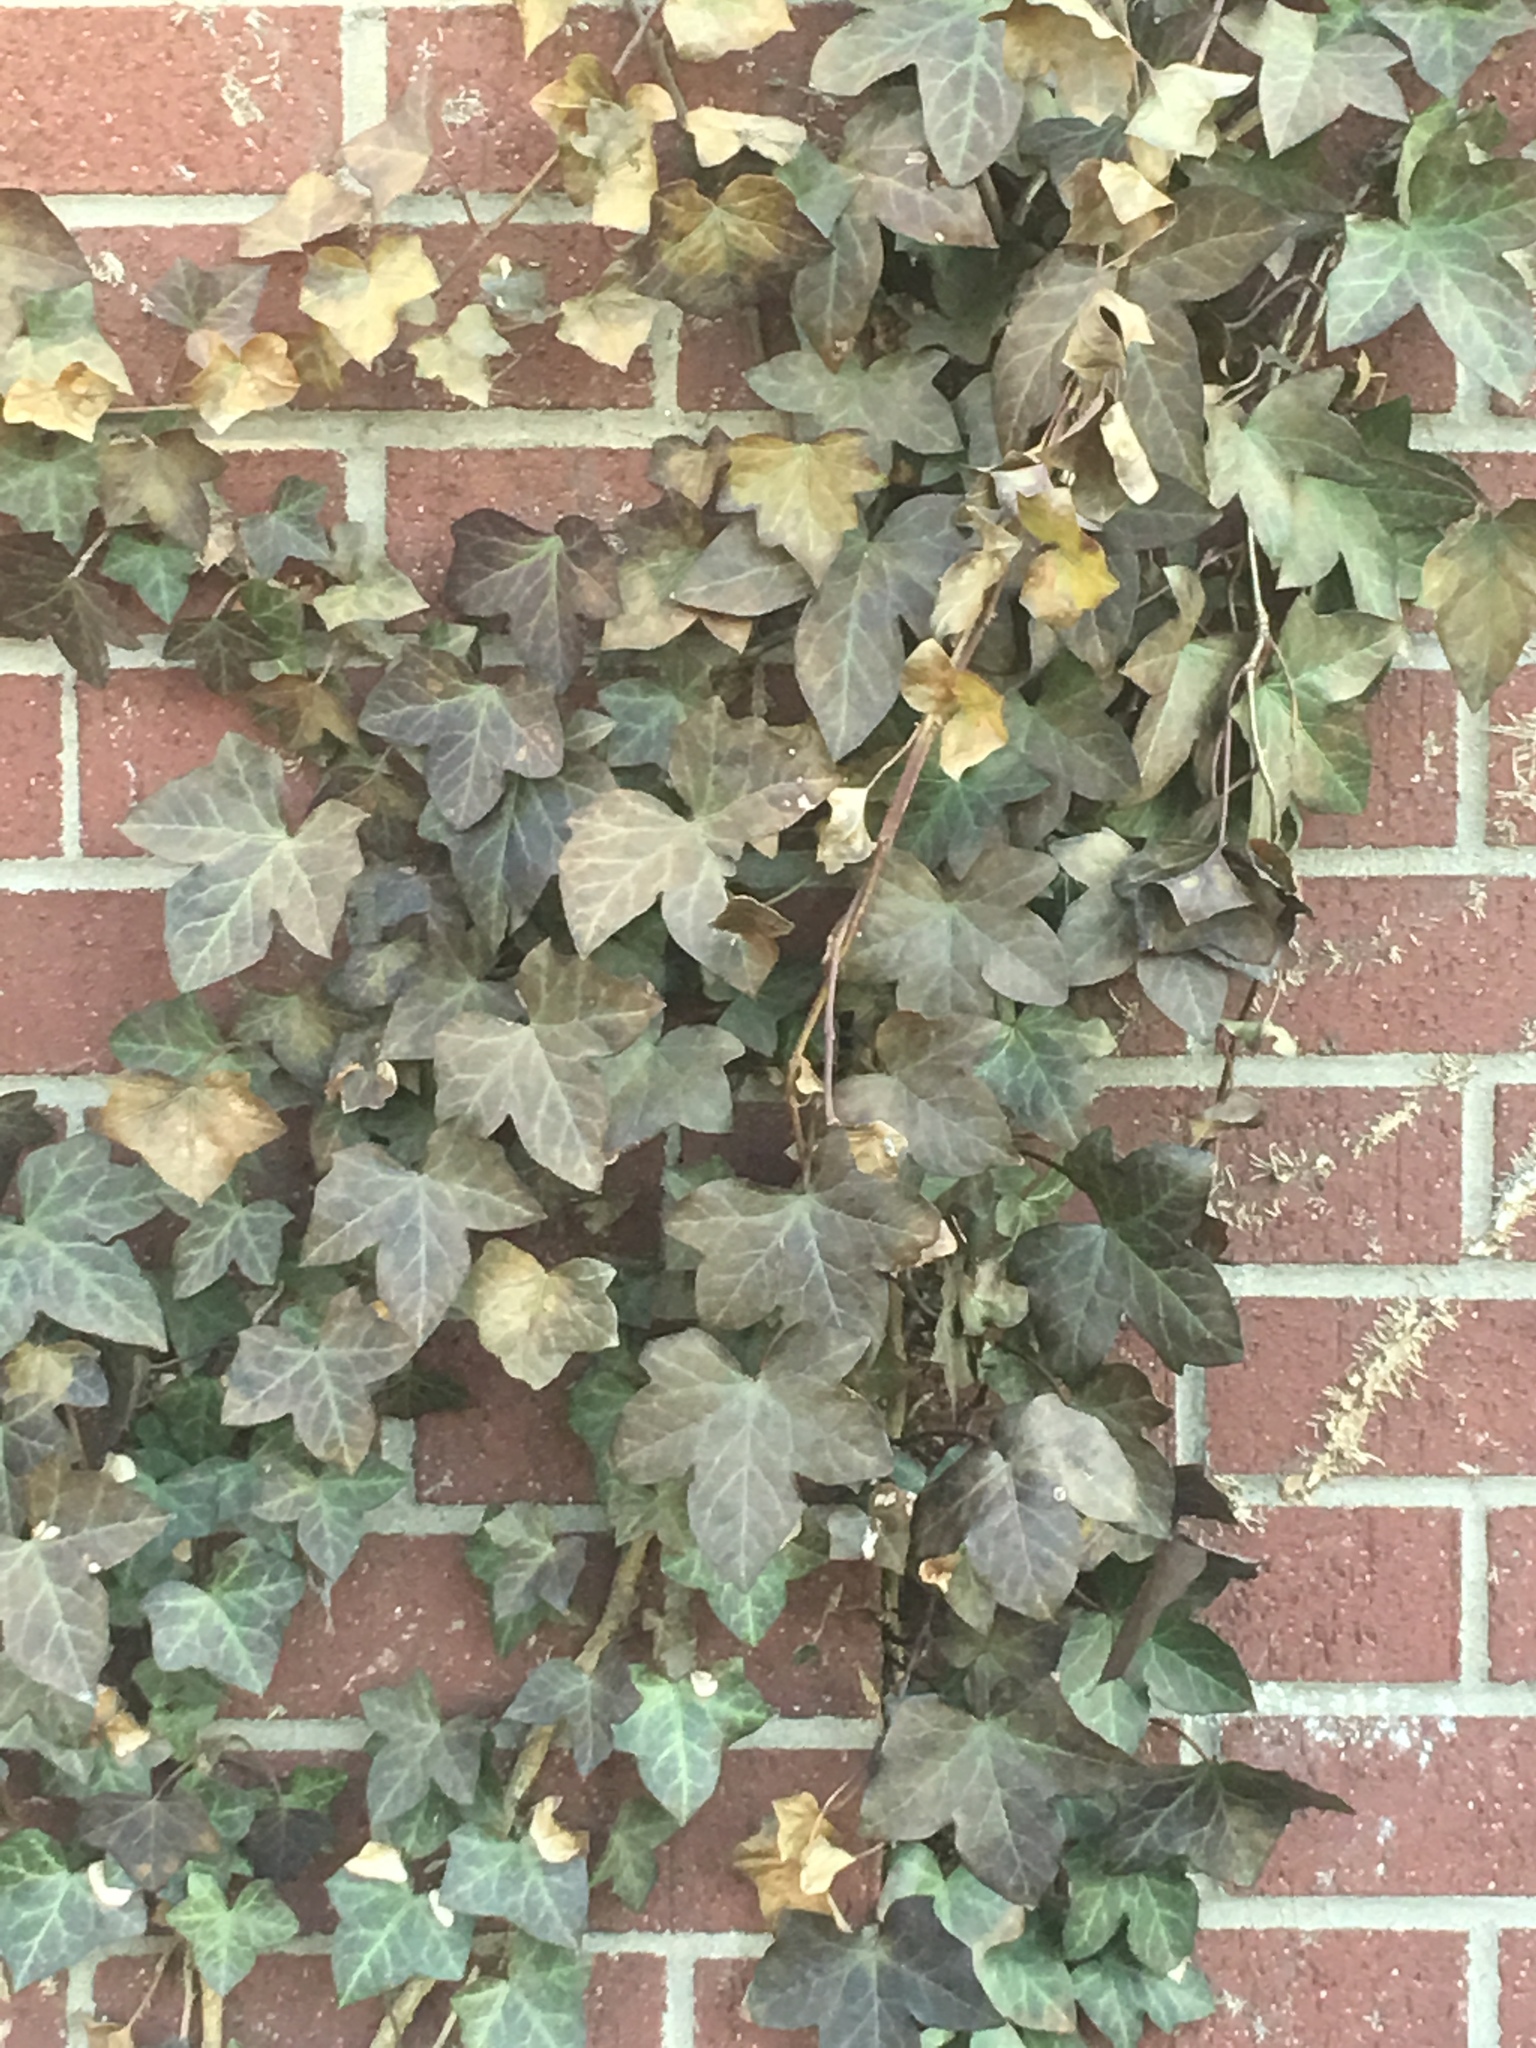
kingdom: Plantae
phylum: Tracheophyta
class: Magnoliopsida
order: Apiales
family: Araliaceae
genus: Hedera
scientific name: Hedera helix
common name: Ivy
